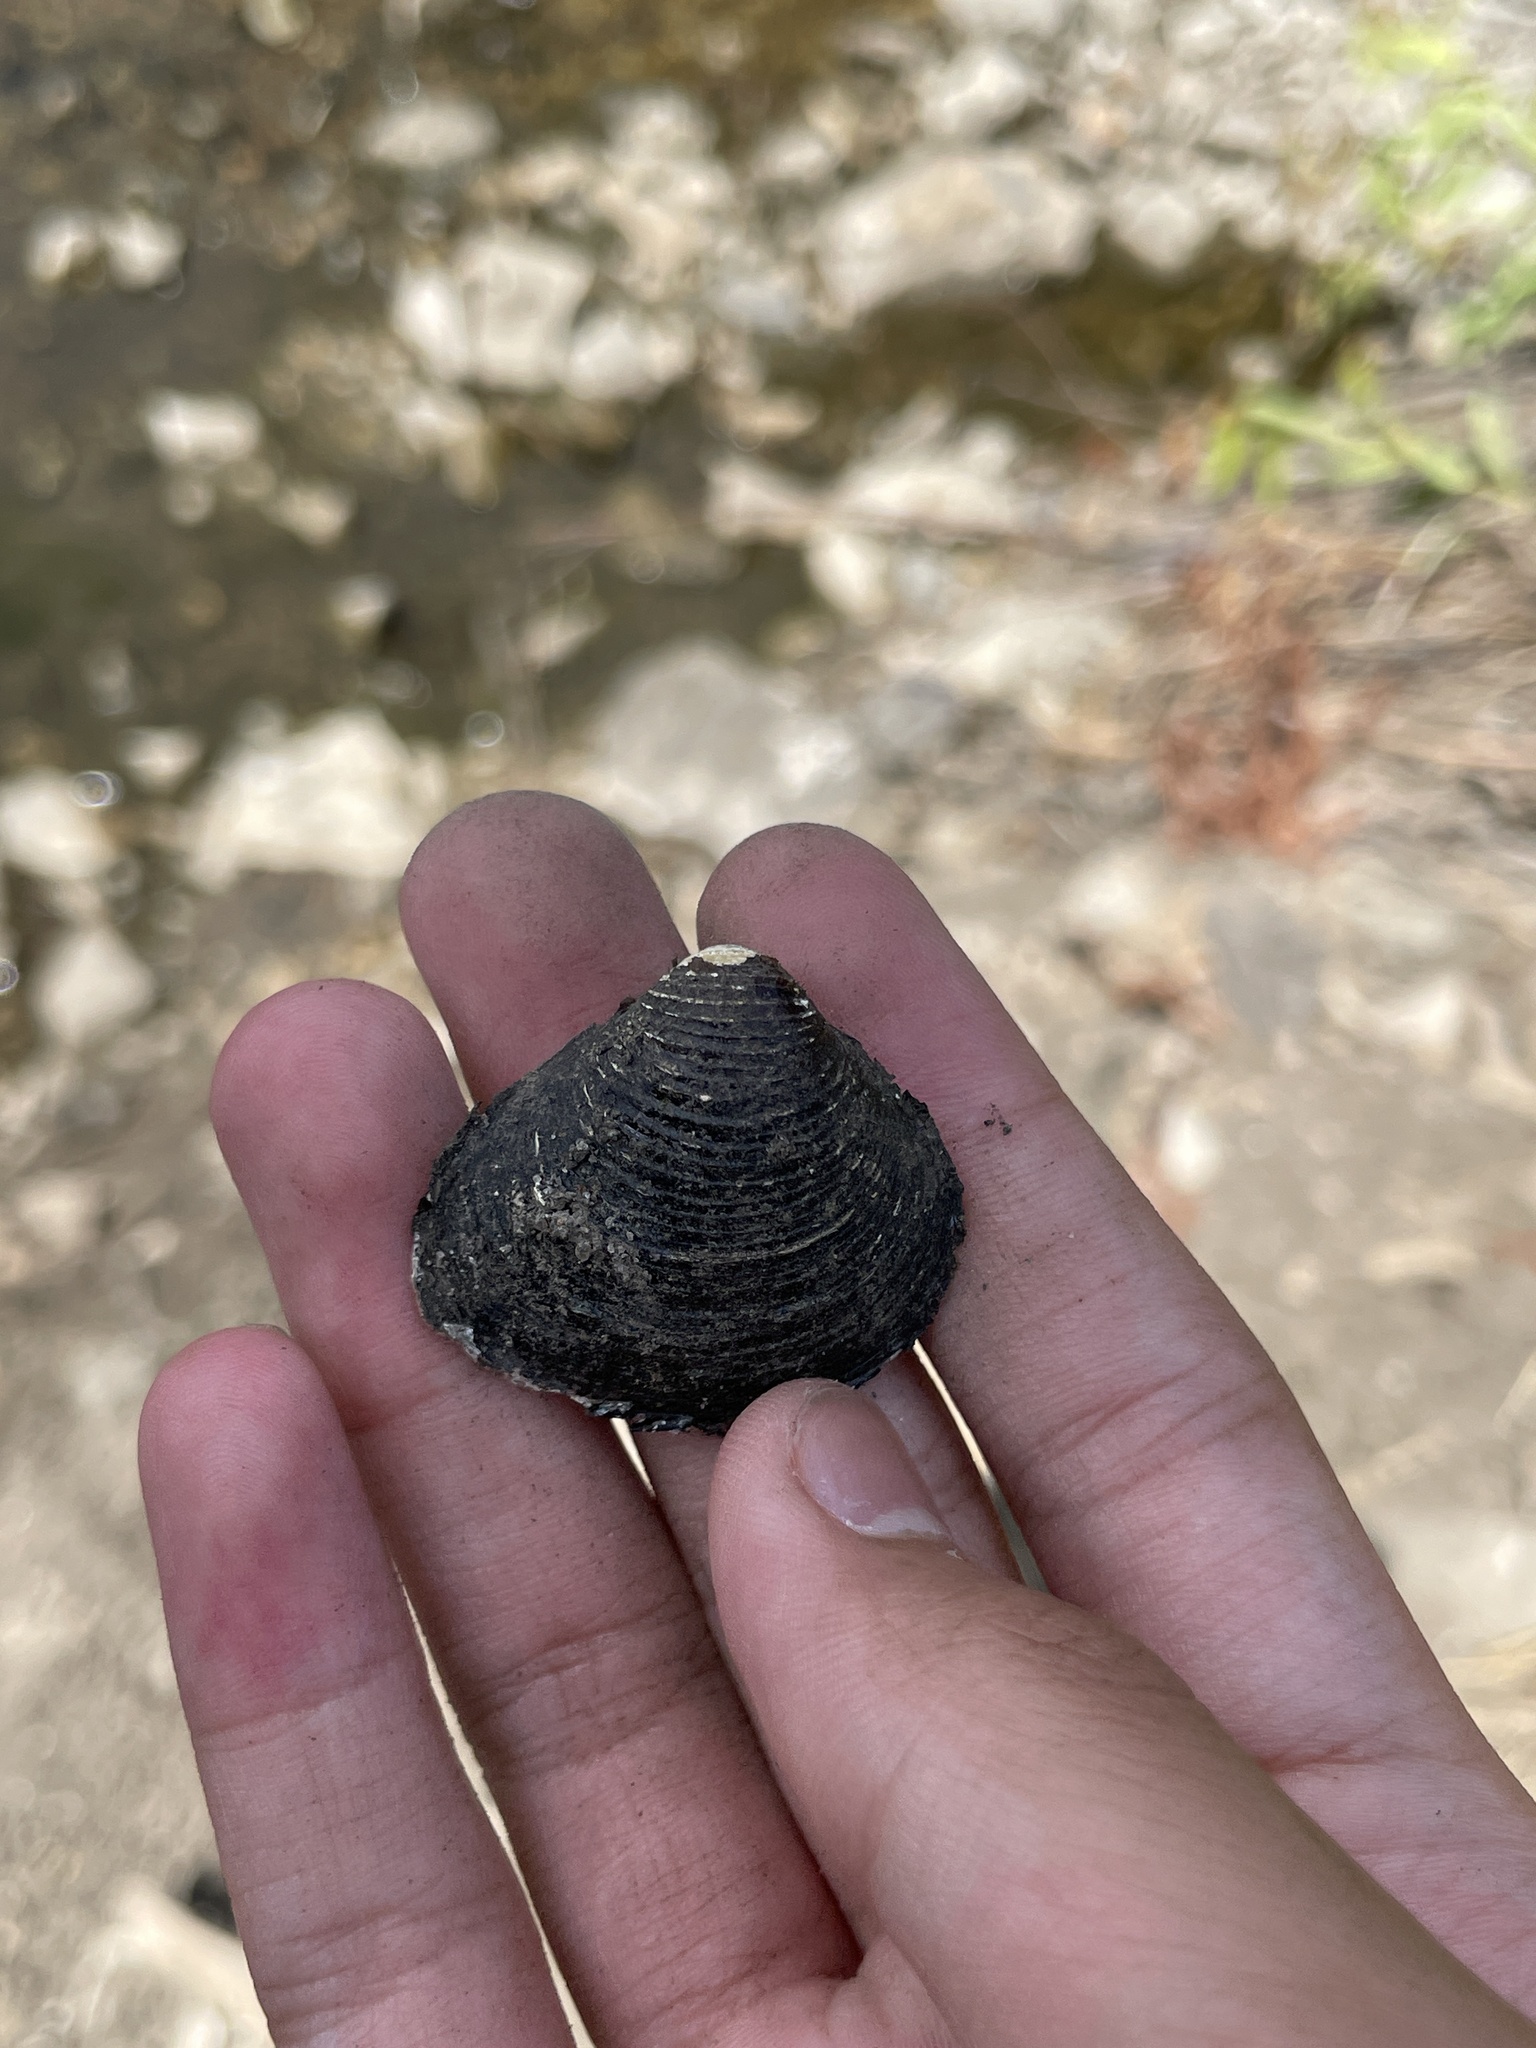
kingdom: Animalia
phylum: Mollusca
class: Bivalvia
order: Venerida
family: Cyrenidae
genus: Corbicula
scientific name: Corbicula fluminea
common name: Asian clam
